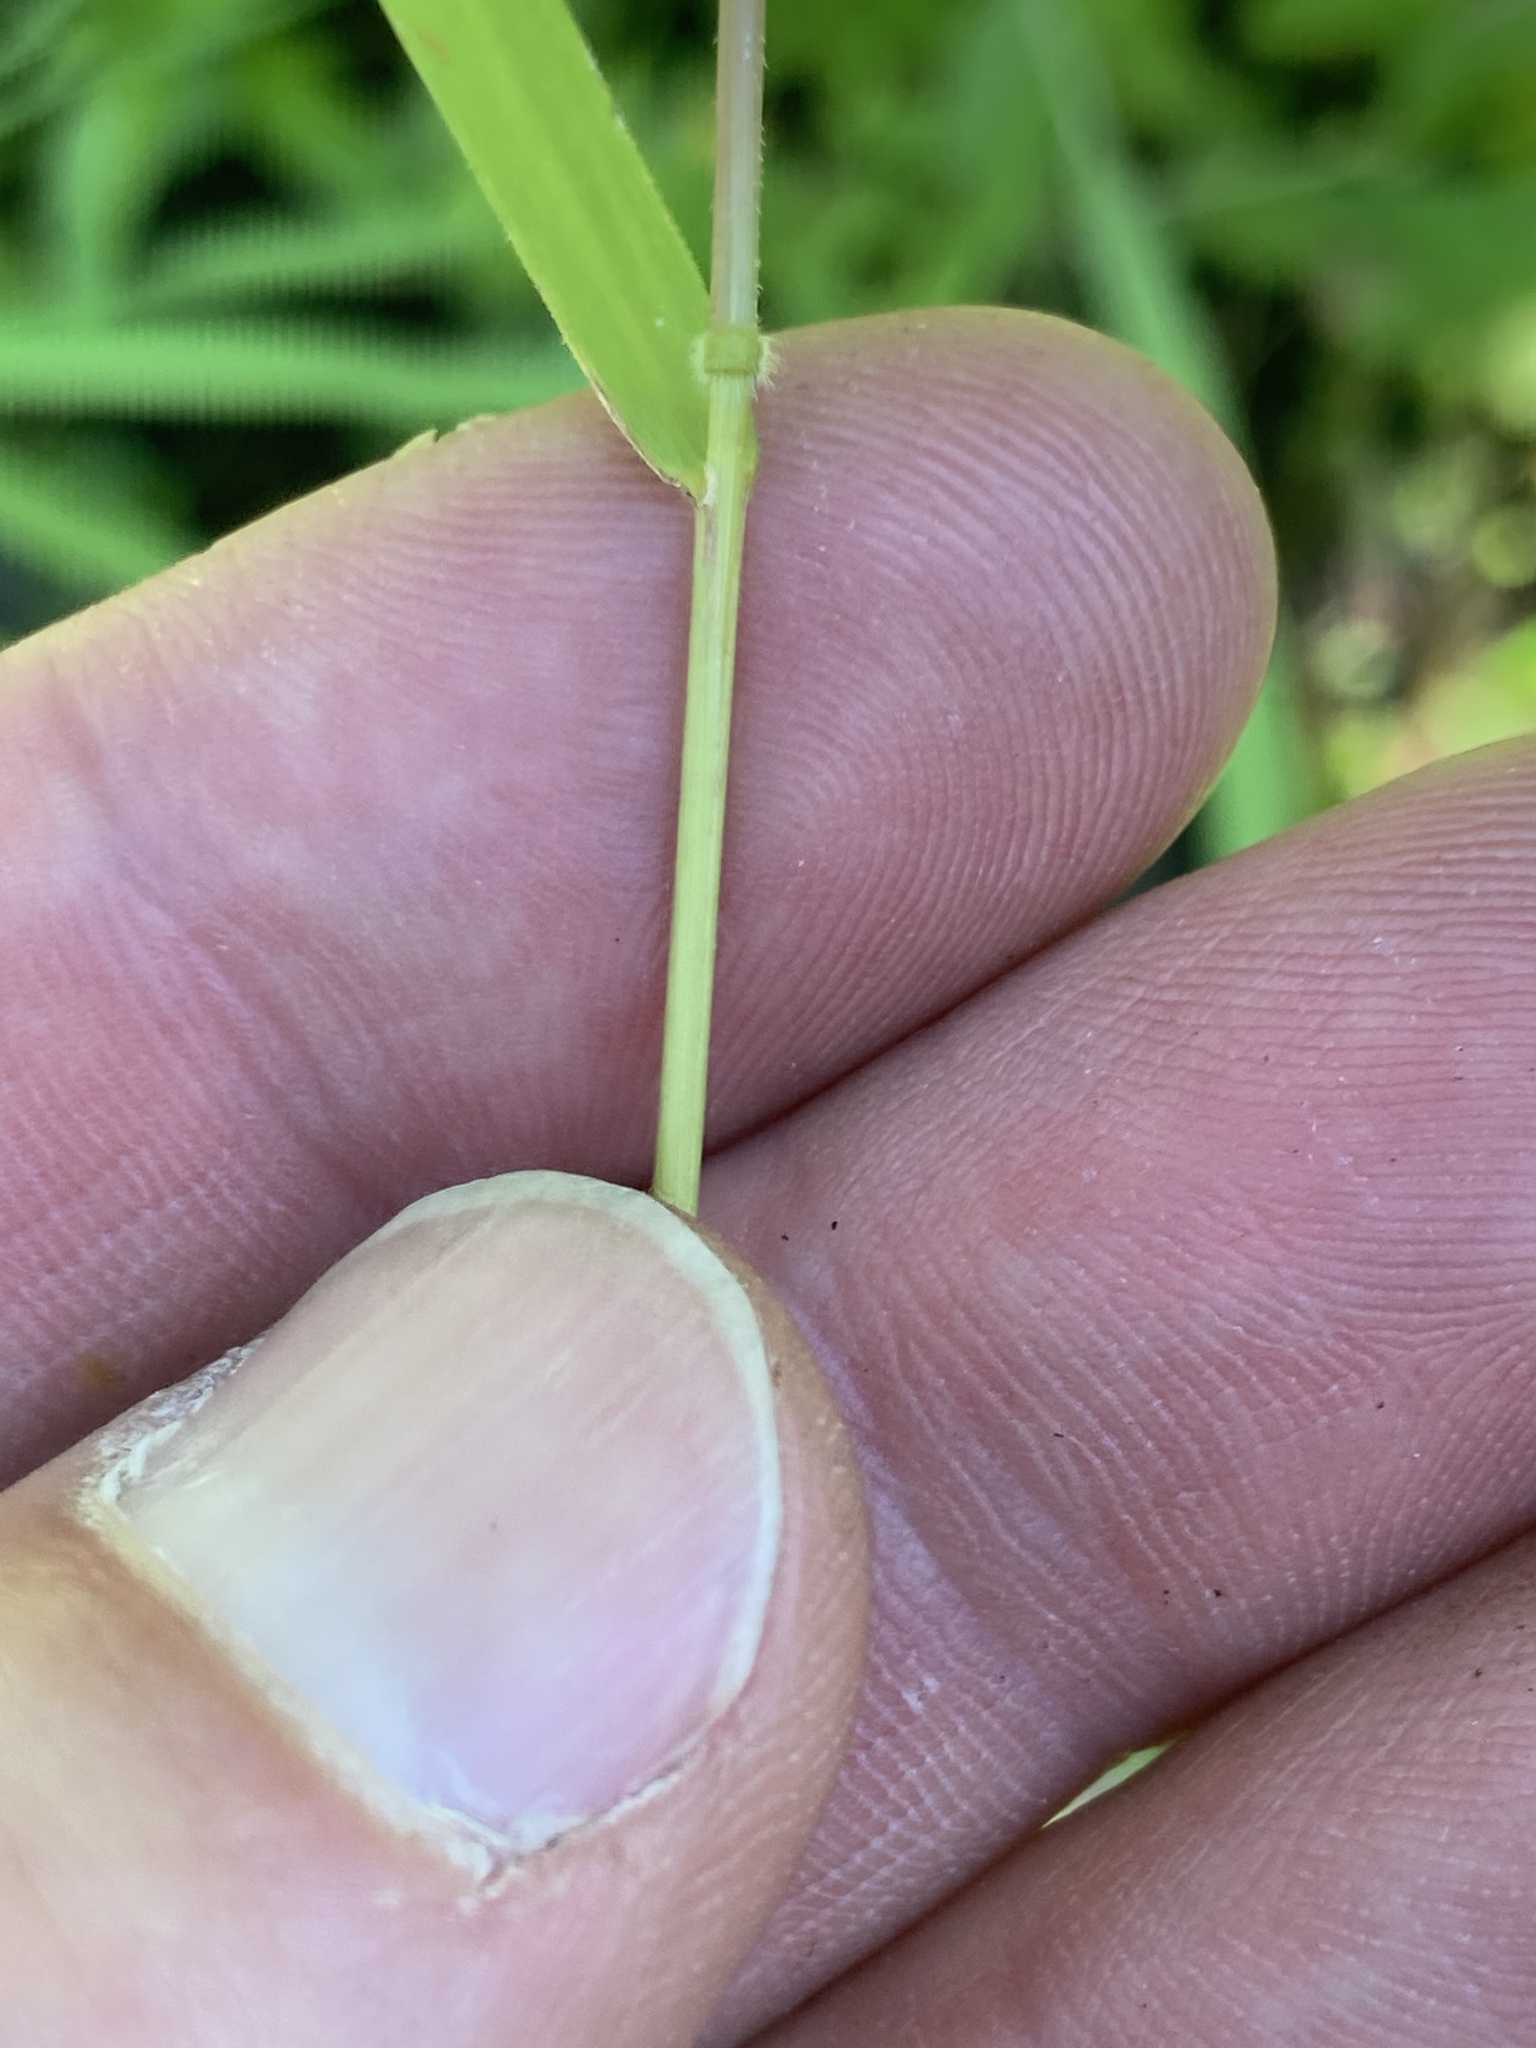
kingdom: Plantae
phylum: Tracheophyta
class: Liliopsida
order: Poales
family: Poaceae
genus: Leersia
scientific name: Leersia oryzoides
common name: Cut-grass
